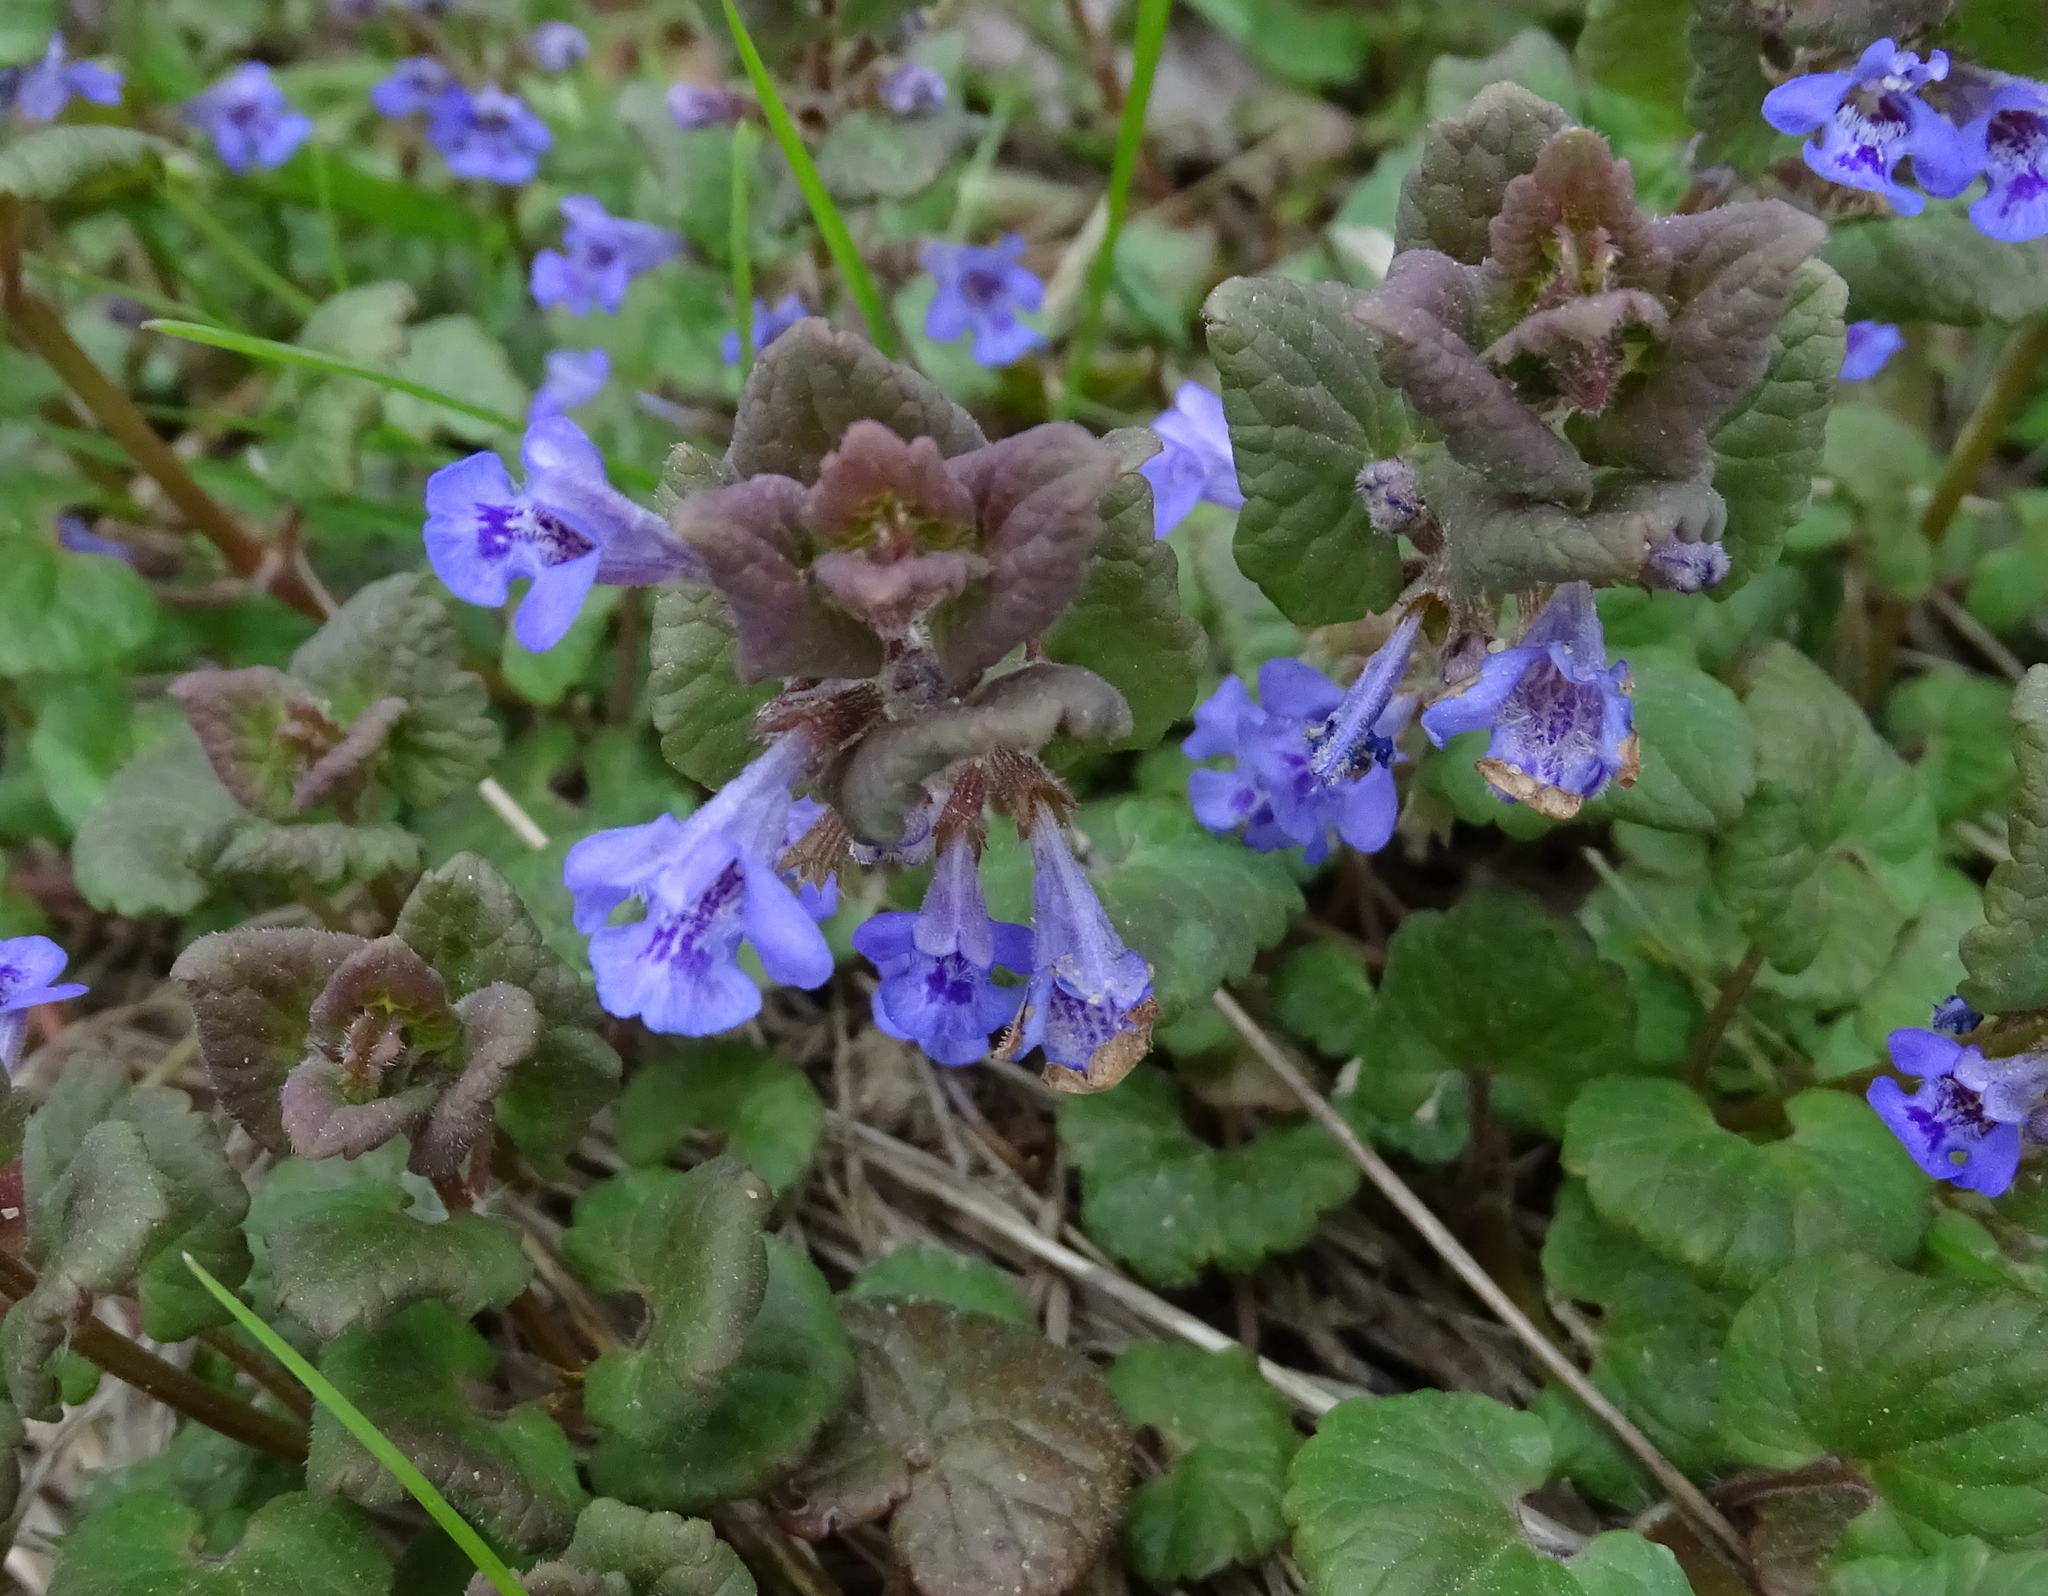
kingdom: Plantae
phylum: Tracheophyta
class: Magnoliopsida
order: Lamiales
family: Lamiaceae
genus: Glechoma
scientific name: Glechoma hederacea
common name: Ground ivy
